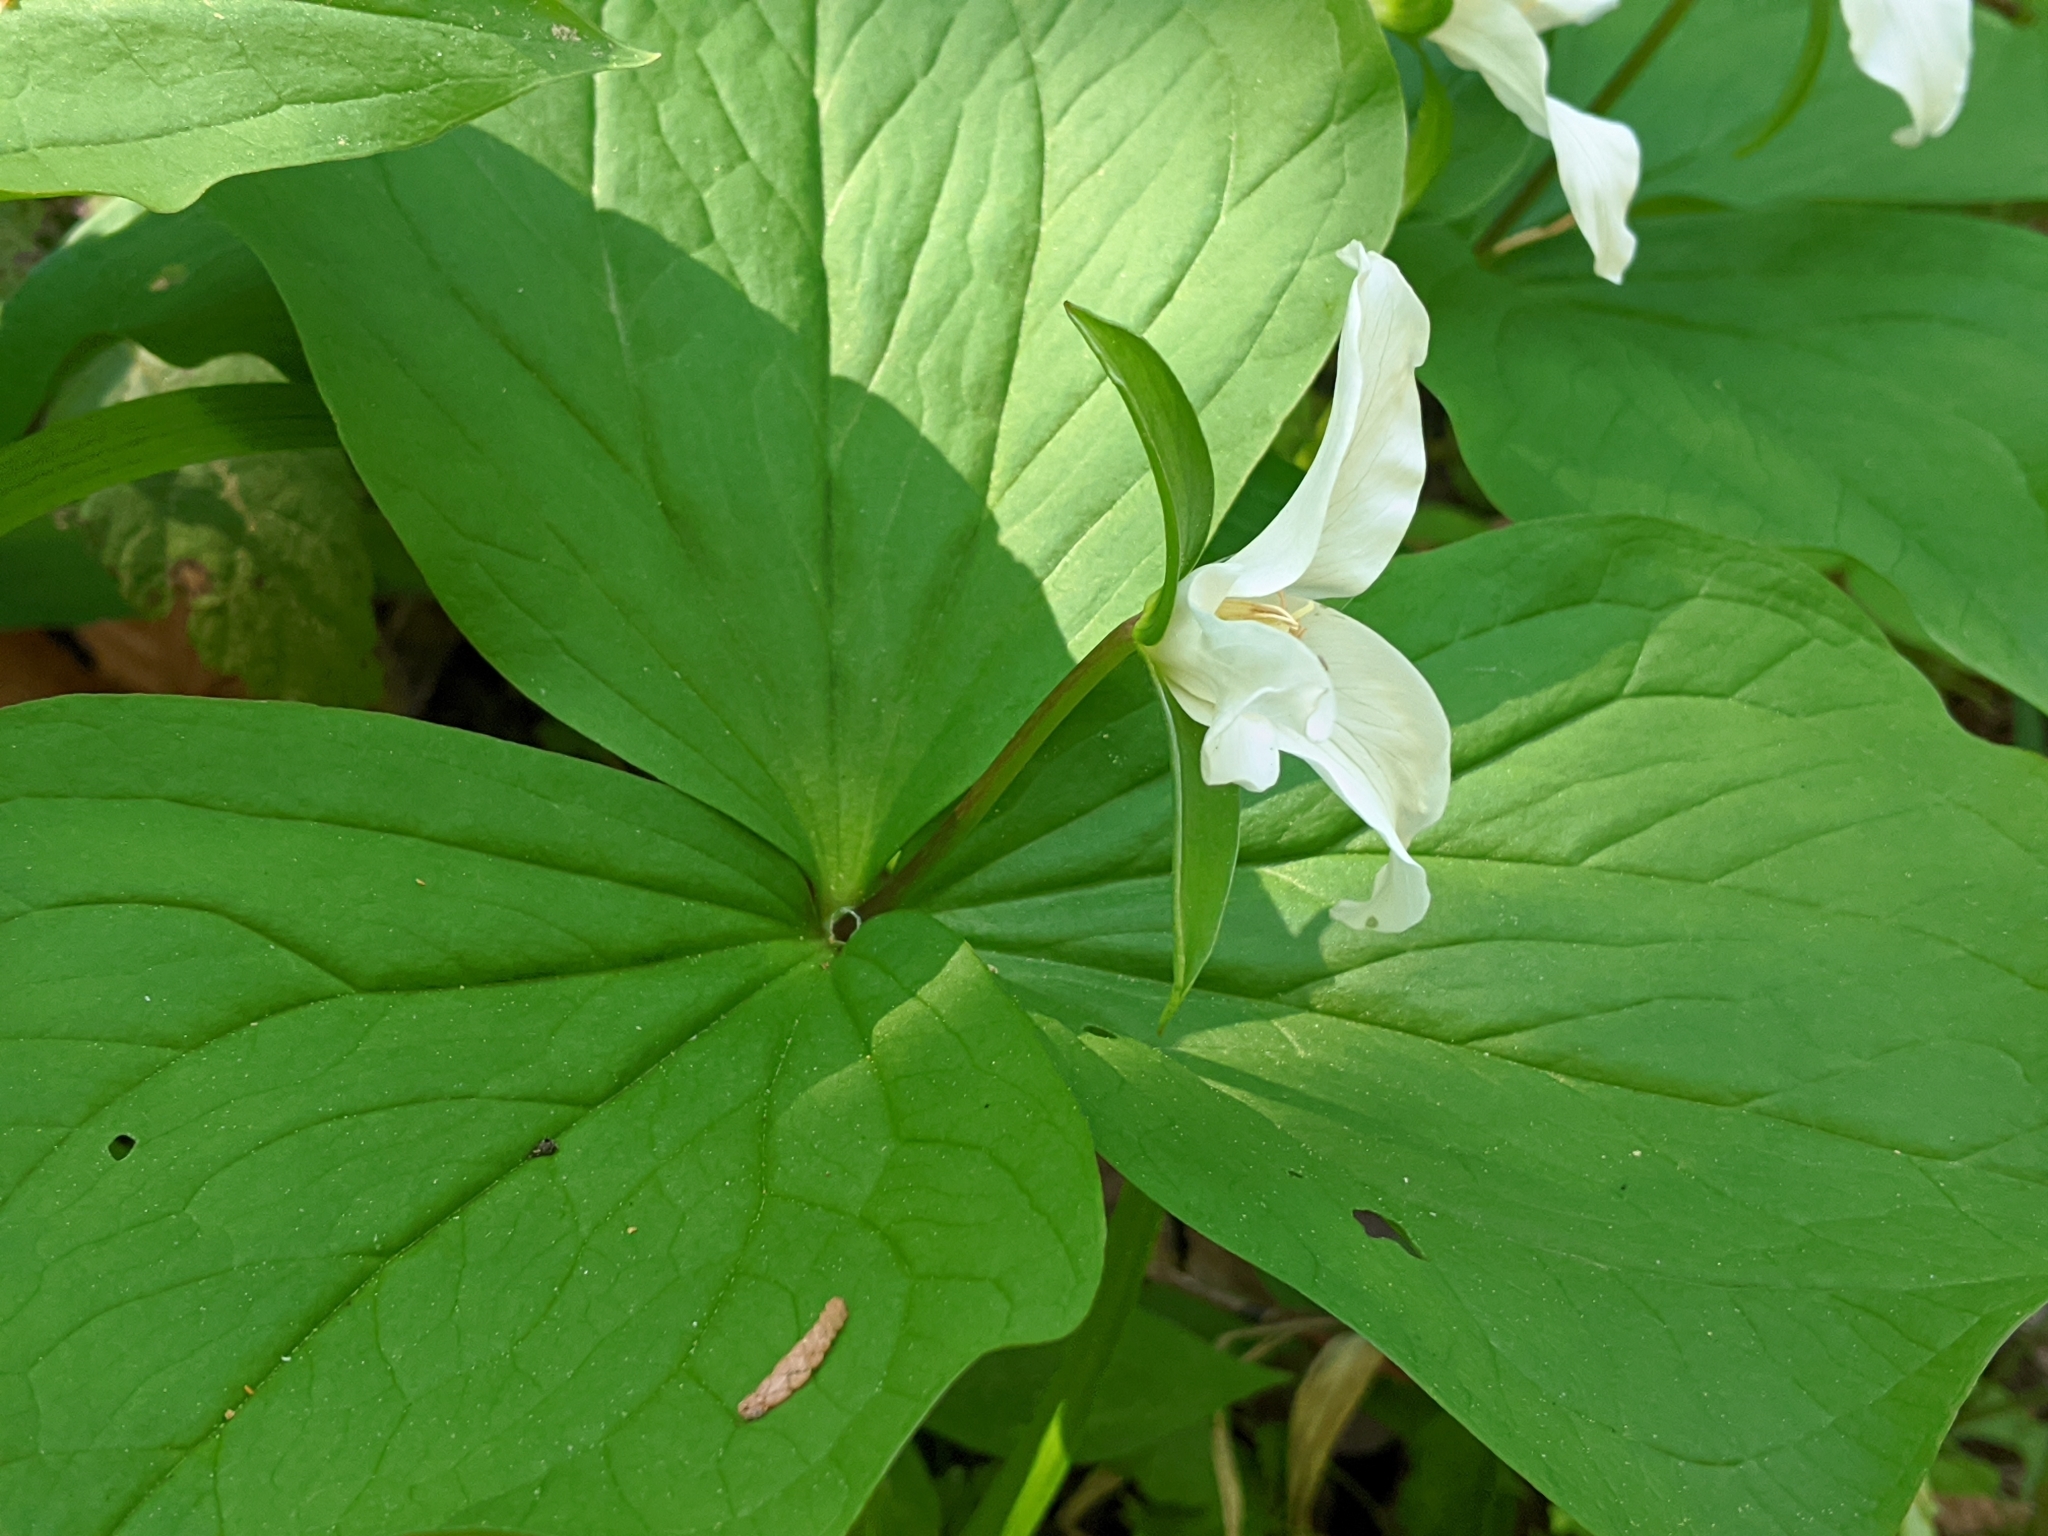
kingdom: Plantae
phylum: Tracheophyta
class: Liliopsida
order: Liliales
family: Melanthiaceae
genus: Trillium
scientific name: Trillium ovatum
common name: Pacific trillium
